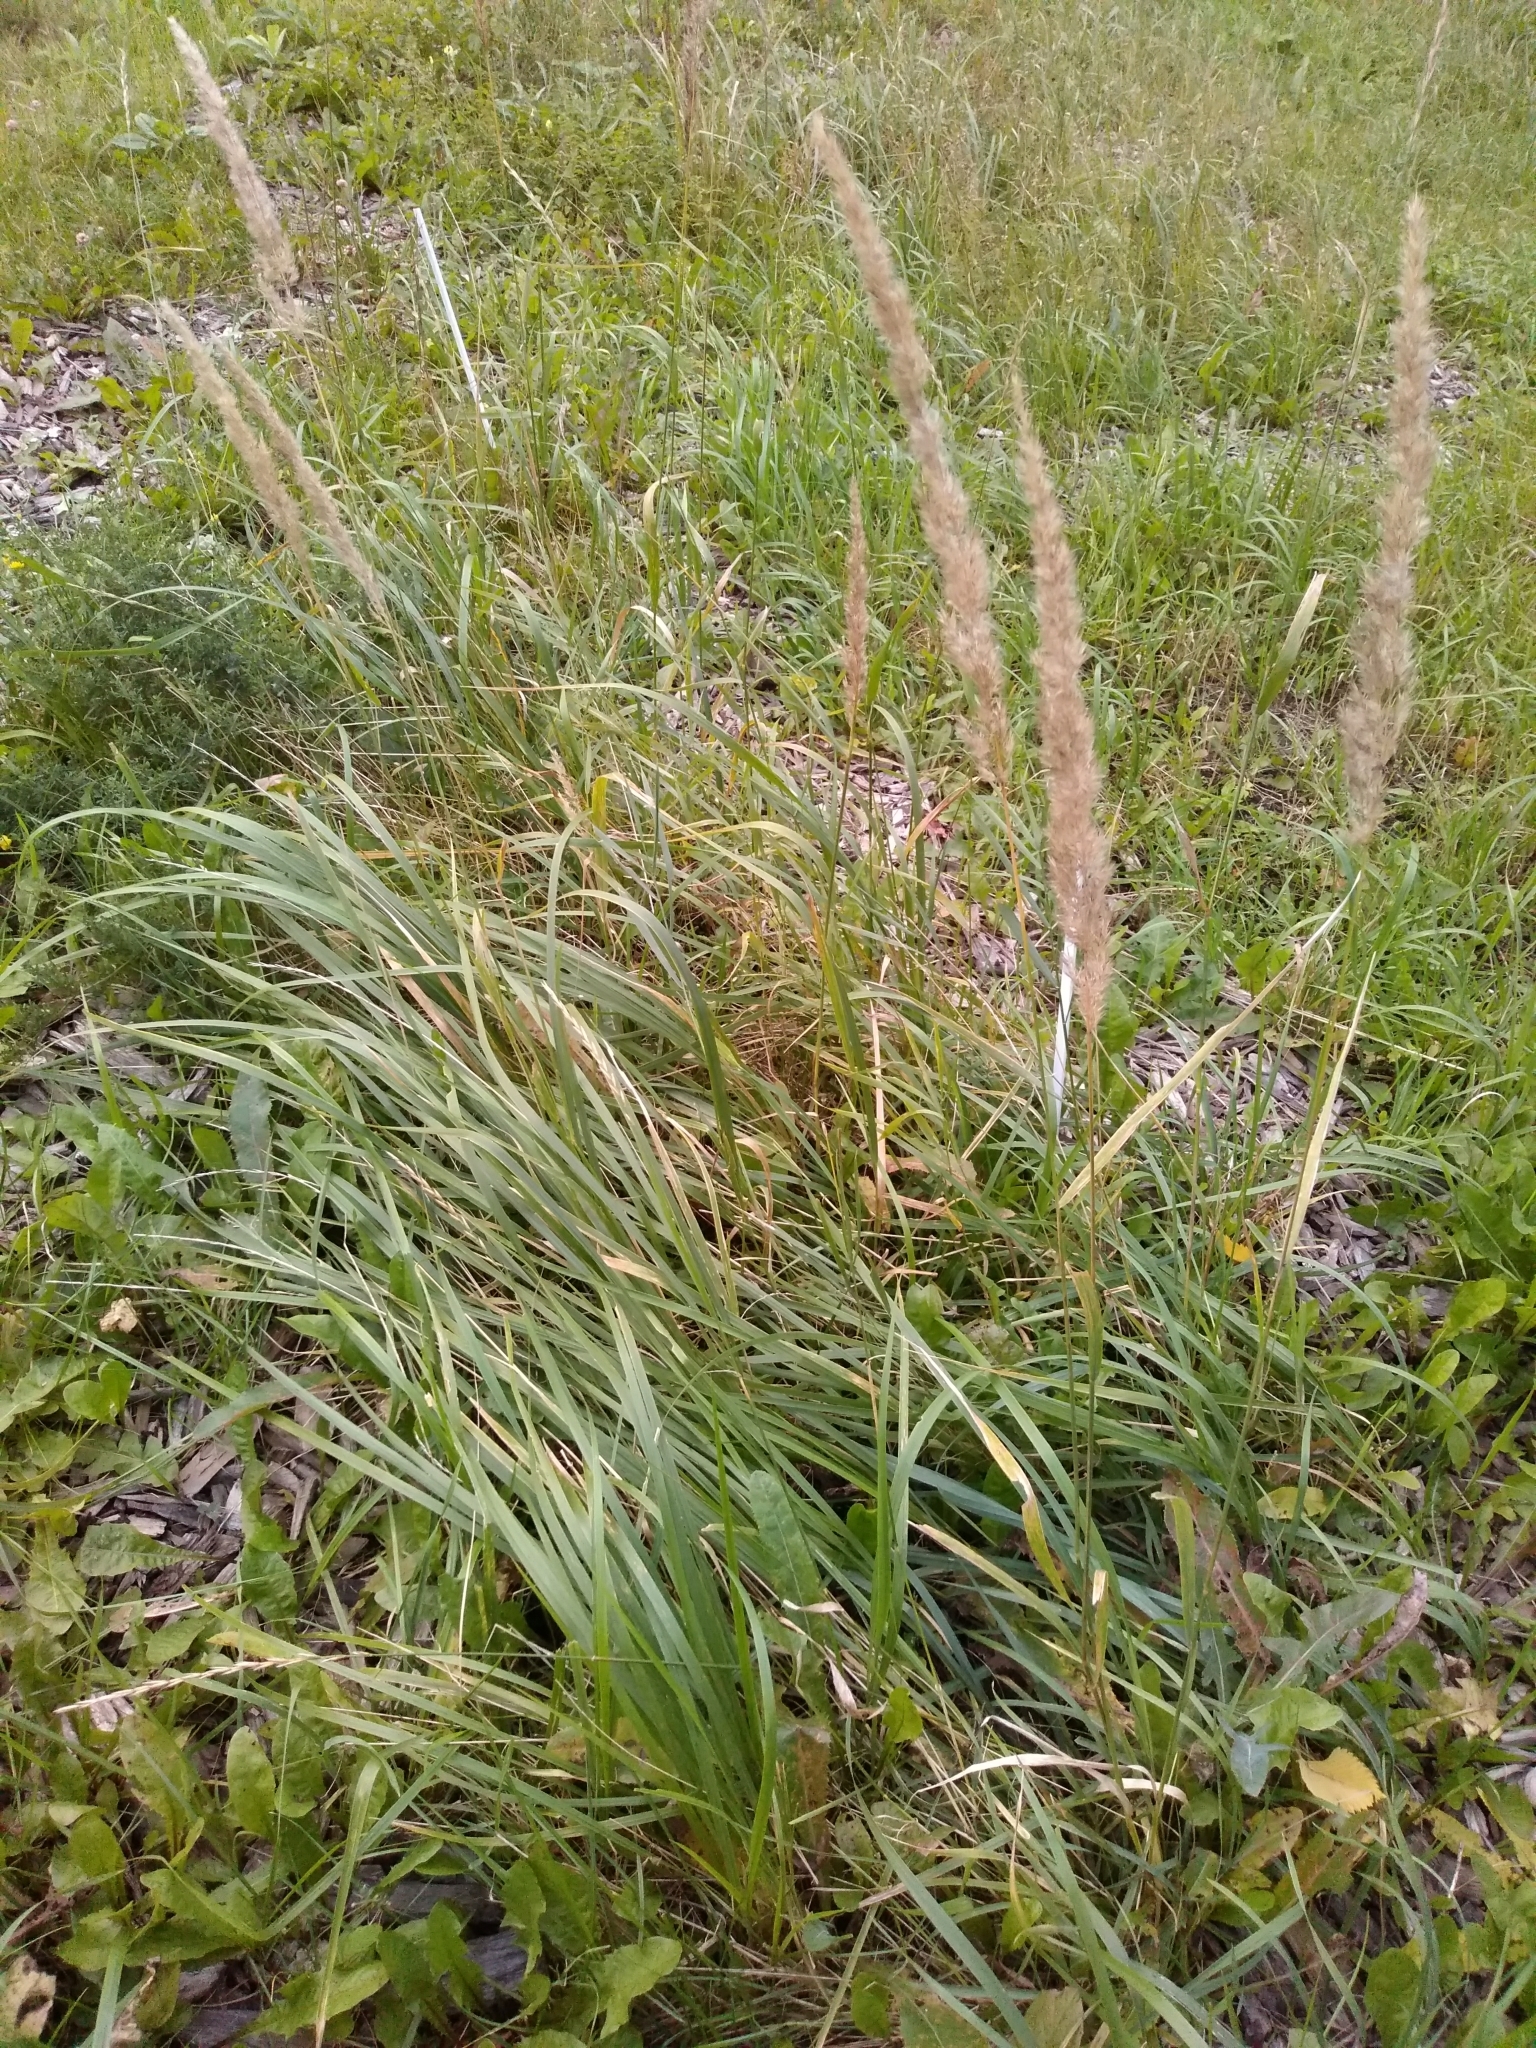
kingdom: Plantae
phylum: Tracheophyta
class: Liliopsida
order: Poales
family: Poaceae
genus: Calamagrostis
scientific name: Calamagrostis epigejos
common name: Wood small-reed
